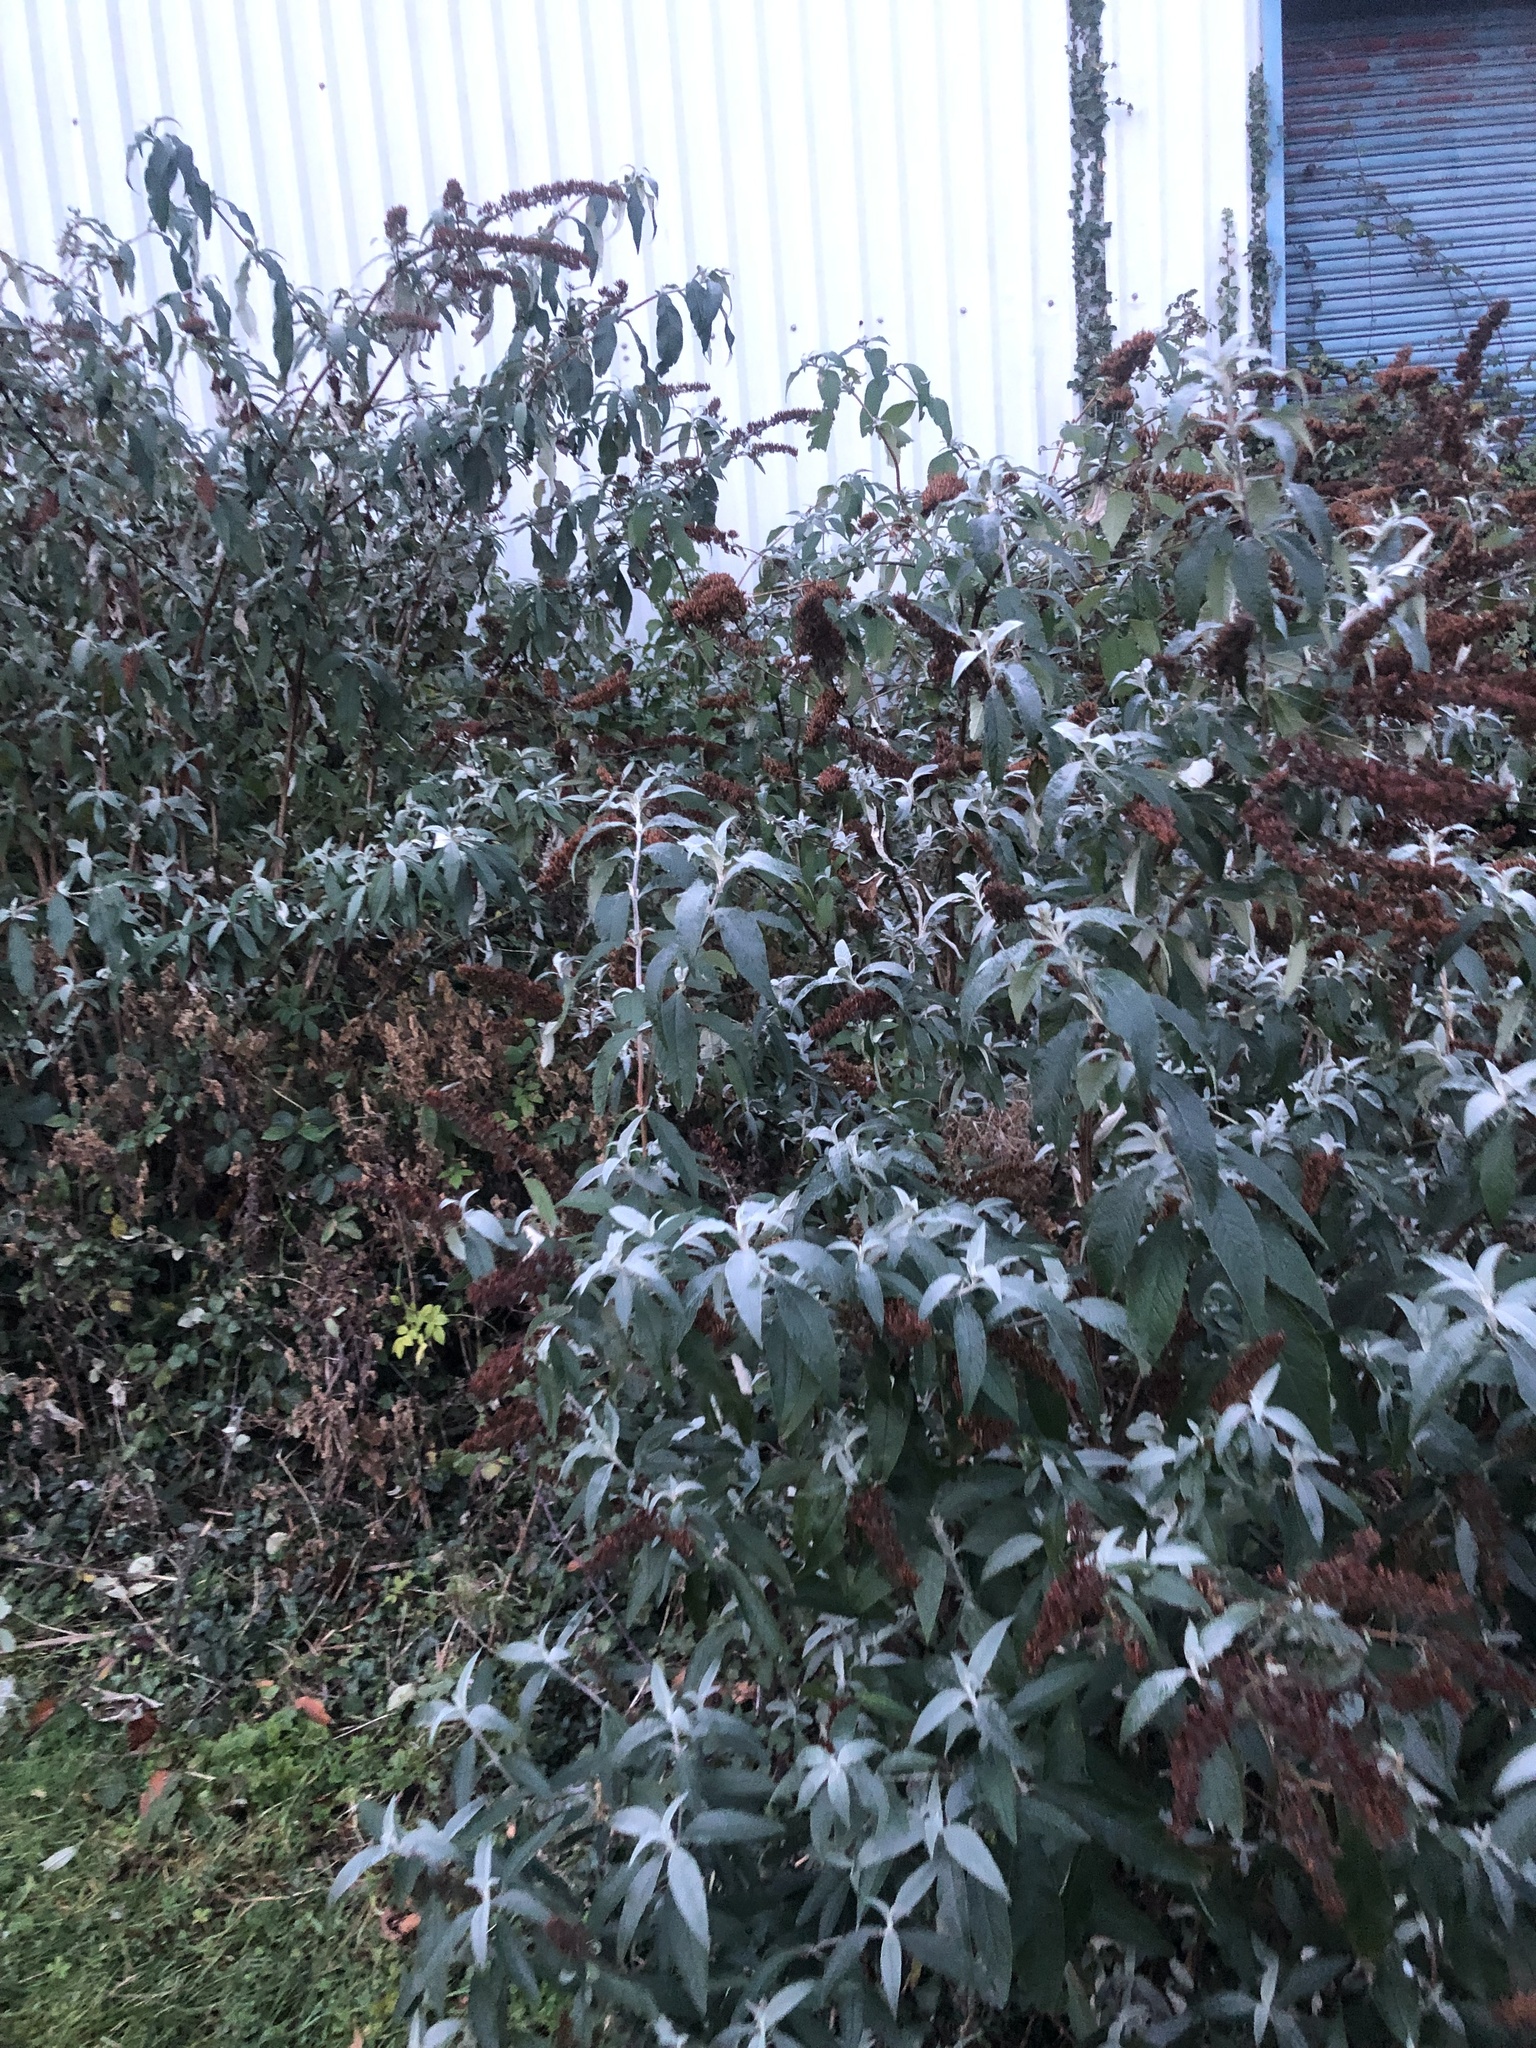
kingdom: Plantae
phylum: Tracheophyta
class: Magnoliopsida
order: Lamiales
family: Scrophulariaceae
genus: Buddleja
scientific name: Buddleja davidii
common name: Butterfly-bush
